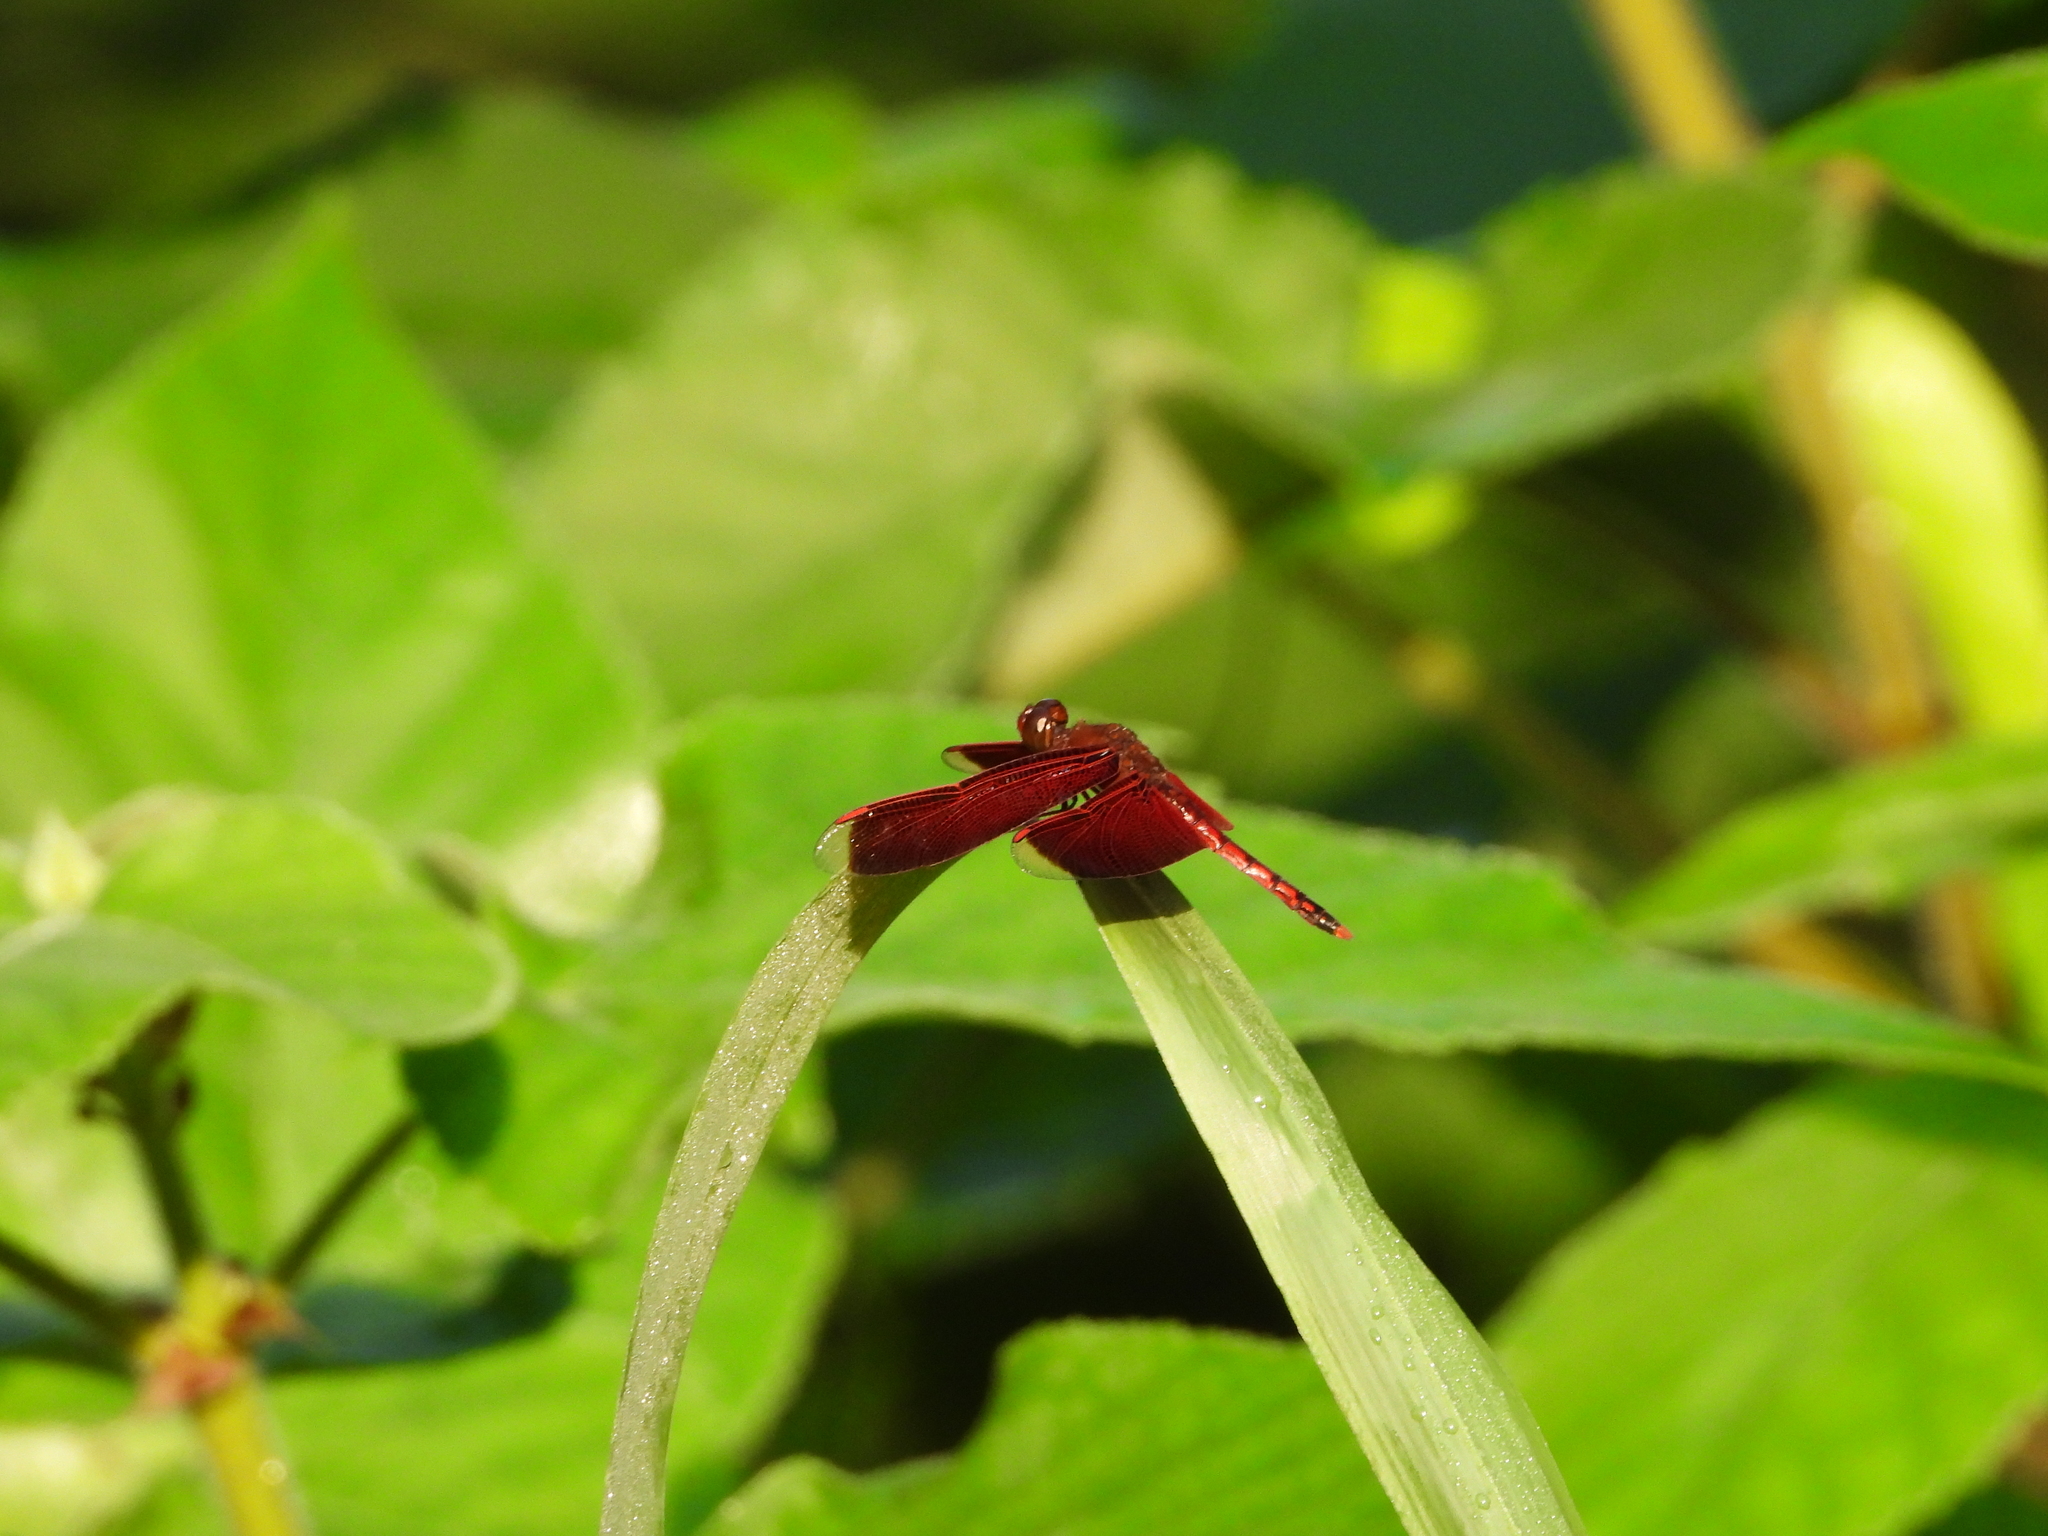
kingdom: Animalia
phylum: Arthropoda
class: Insecta
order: Odonata
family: Libellulidae
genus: Neurothemis
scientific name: Neurothemis taiwanensis
